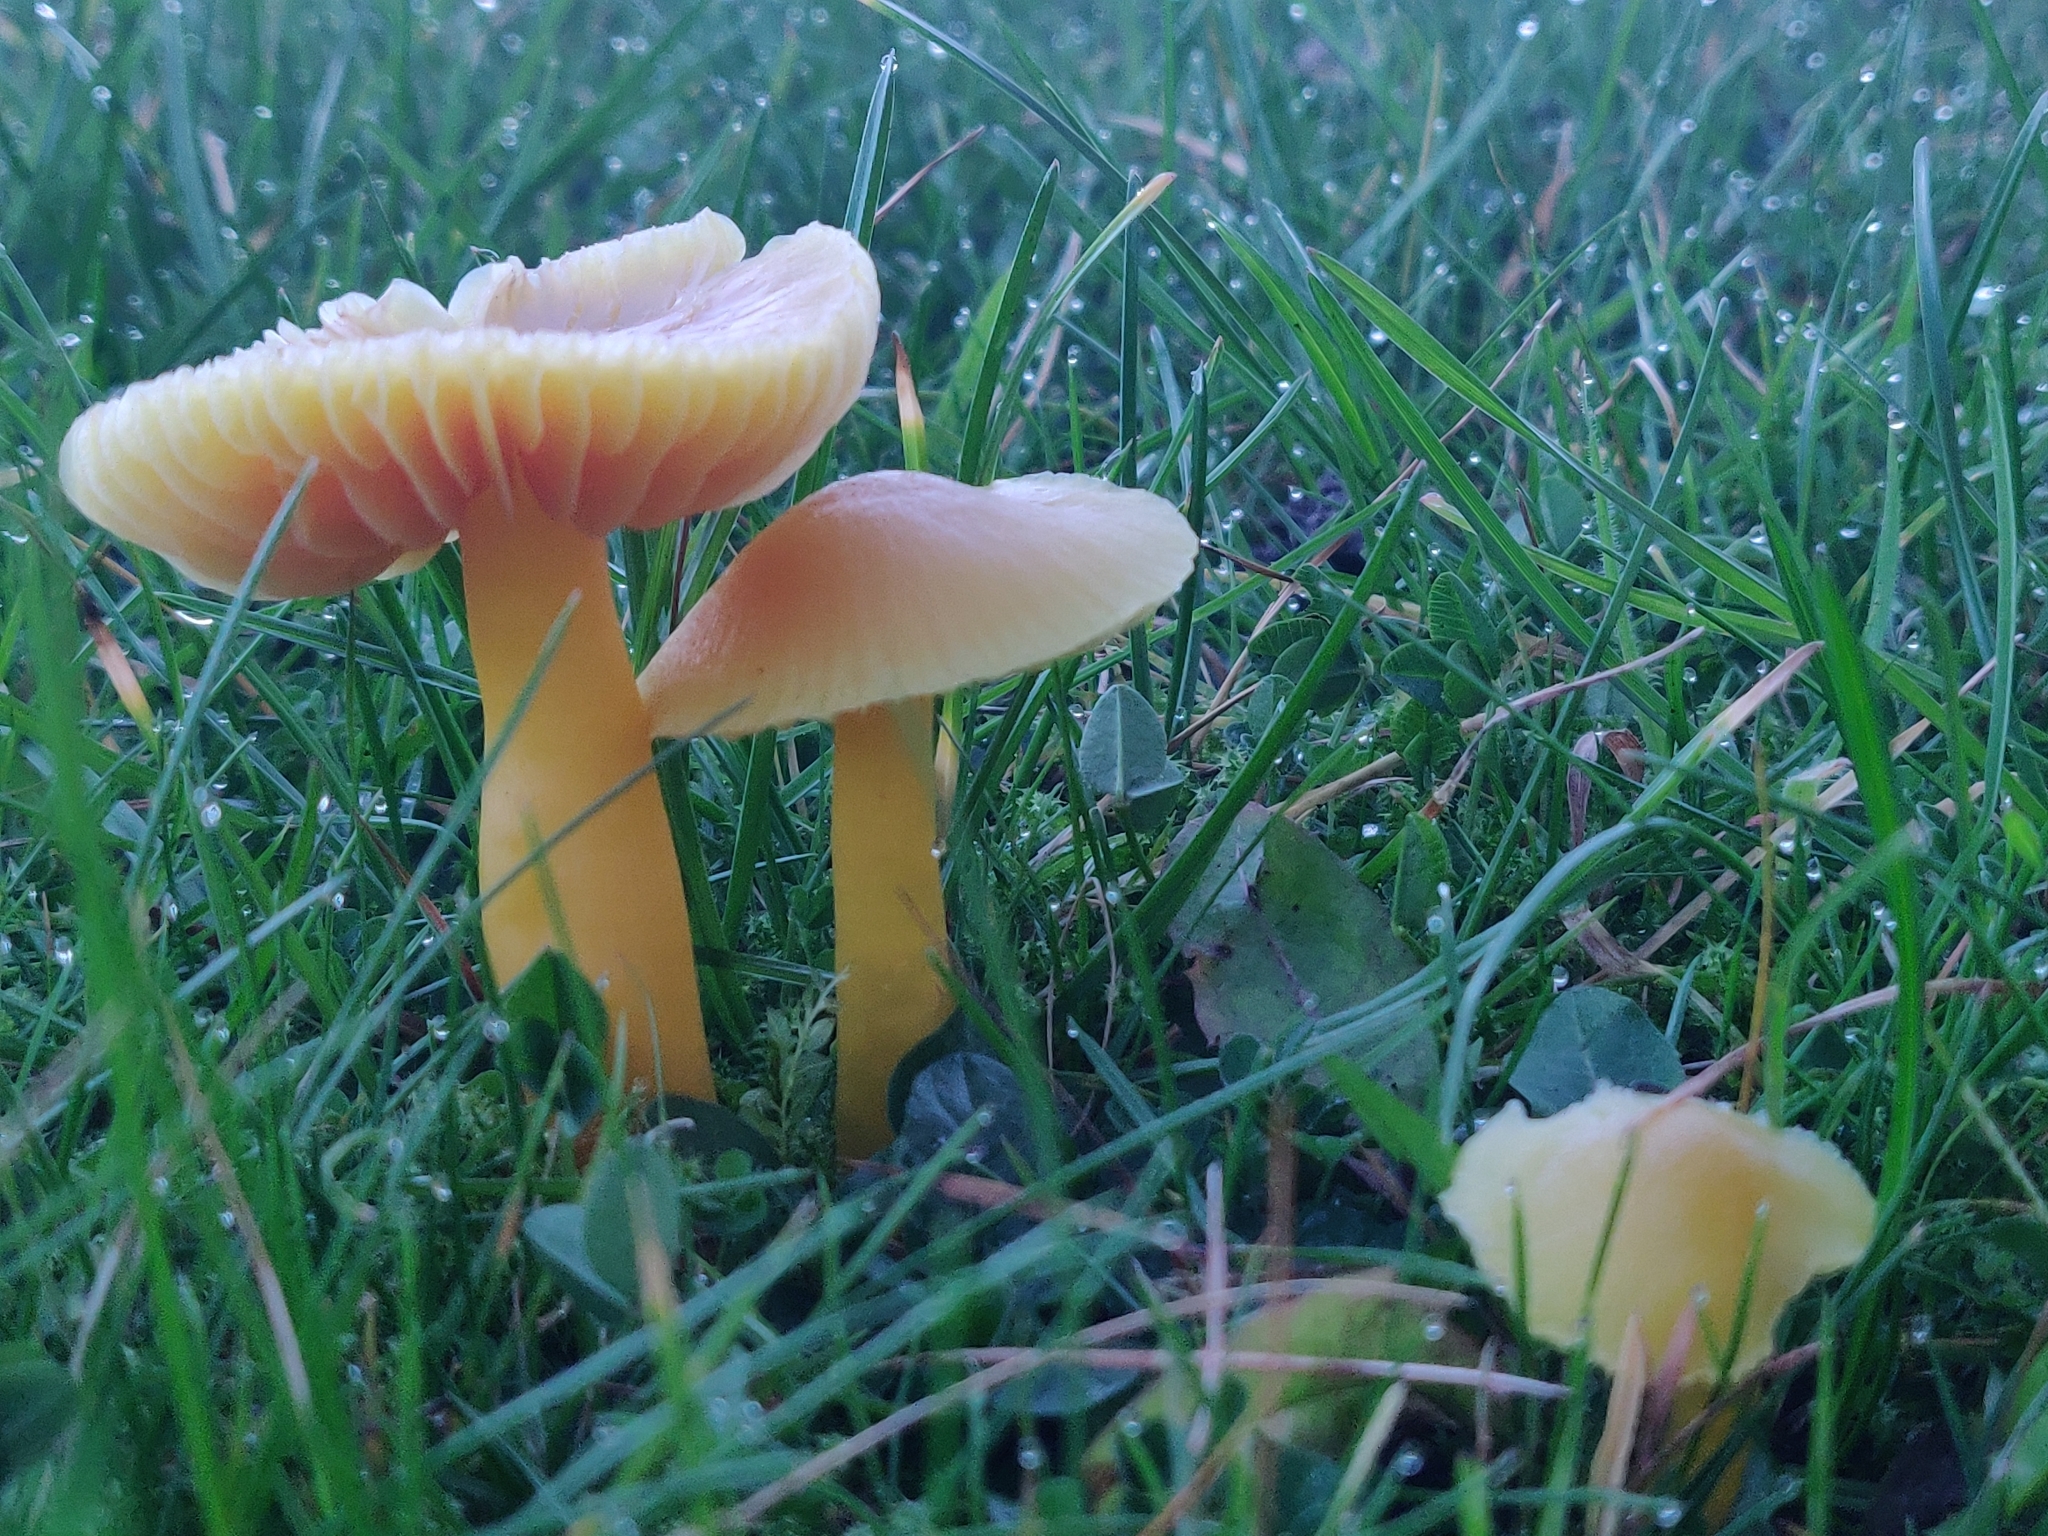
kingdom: Fungi
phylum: Basidiomycota
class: Agaricomycetes
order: Agaricales
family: Hygrophoraceae
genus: Hygrocybe
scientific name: Hygrocybe quieta
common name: Oily waxcap
